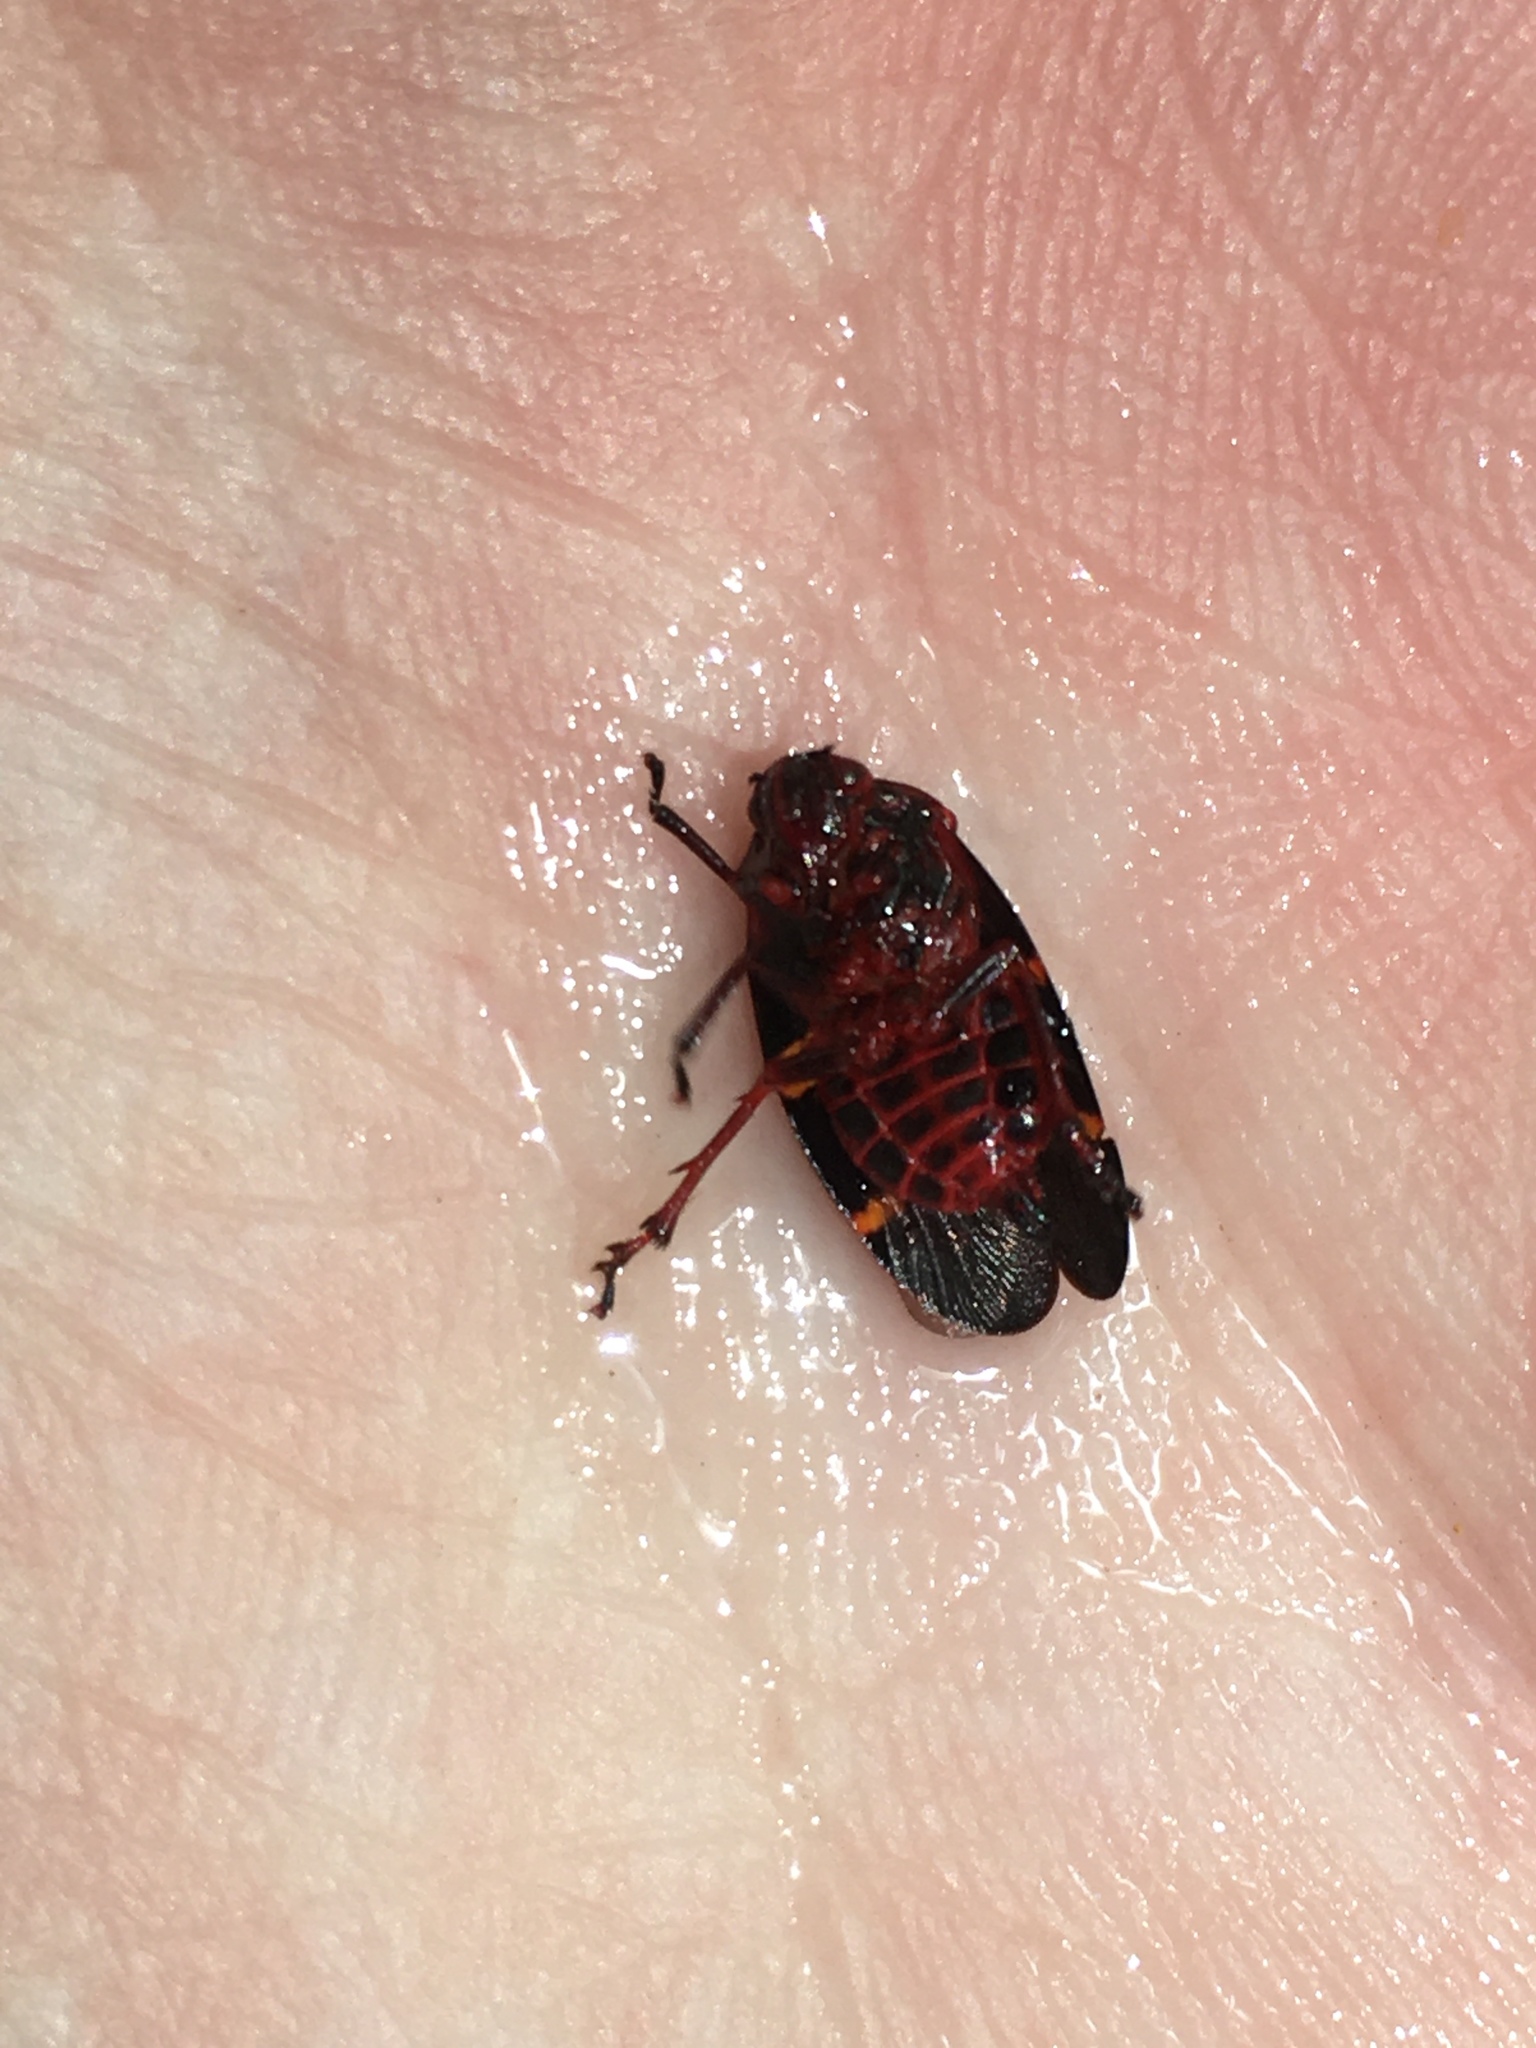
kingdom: Animalia
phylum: Arthropoda
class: Insecta
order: Hemiptera
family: Cercopidae
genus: Prosapia
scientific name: Prosapia bicincta
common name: Twolined spittlebug
